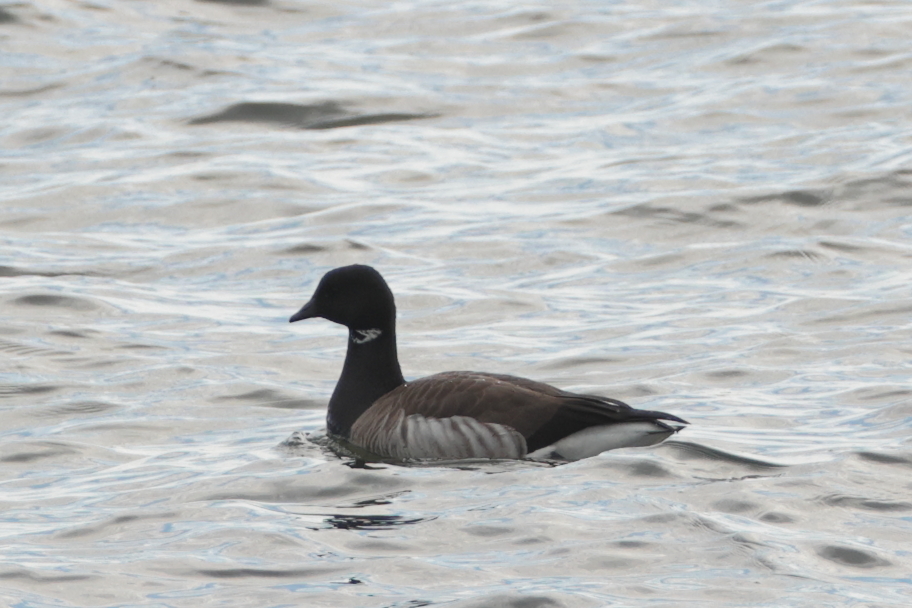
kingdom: Animalia
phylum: Chordata
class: Aves
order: Anseriformes
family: Anatidae
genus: Branta
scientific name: Branta bernicla
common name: Brant goose
